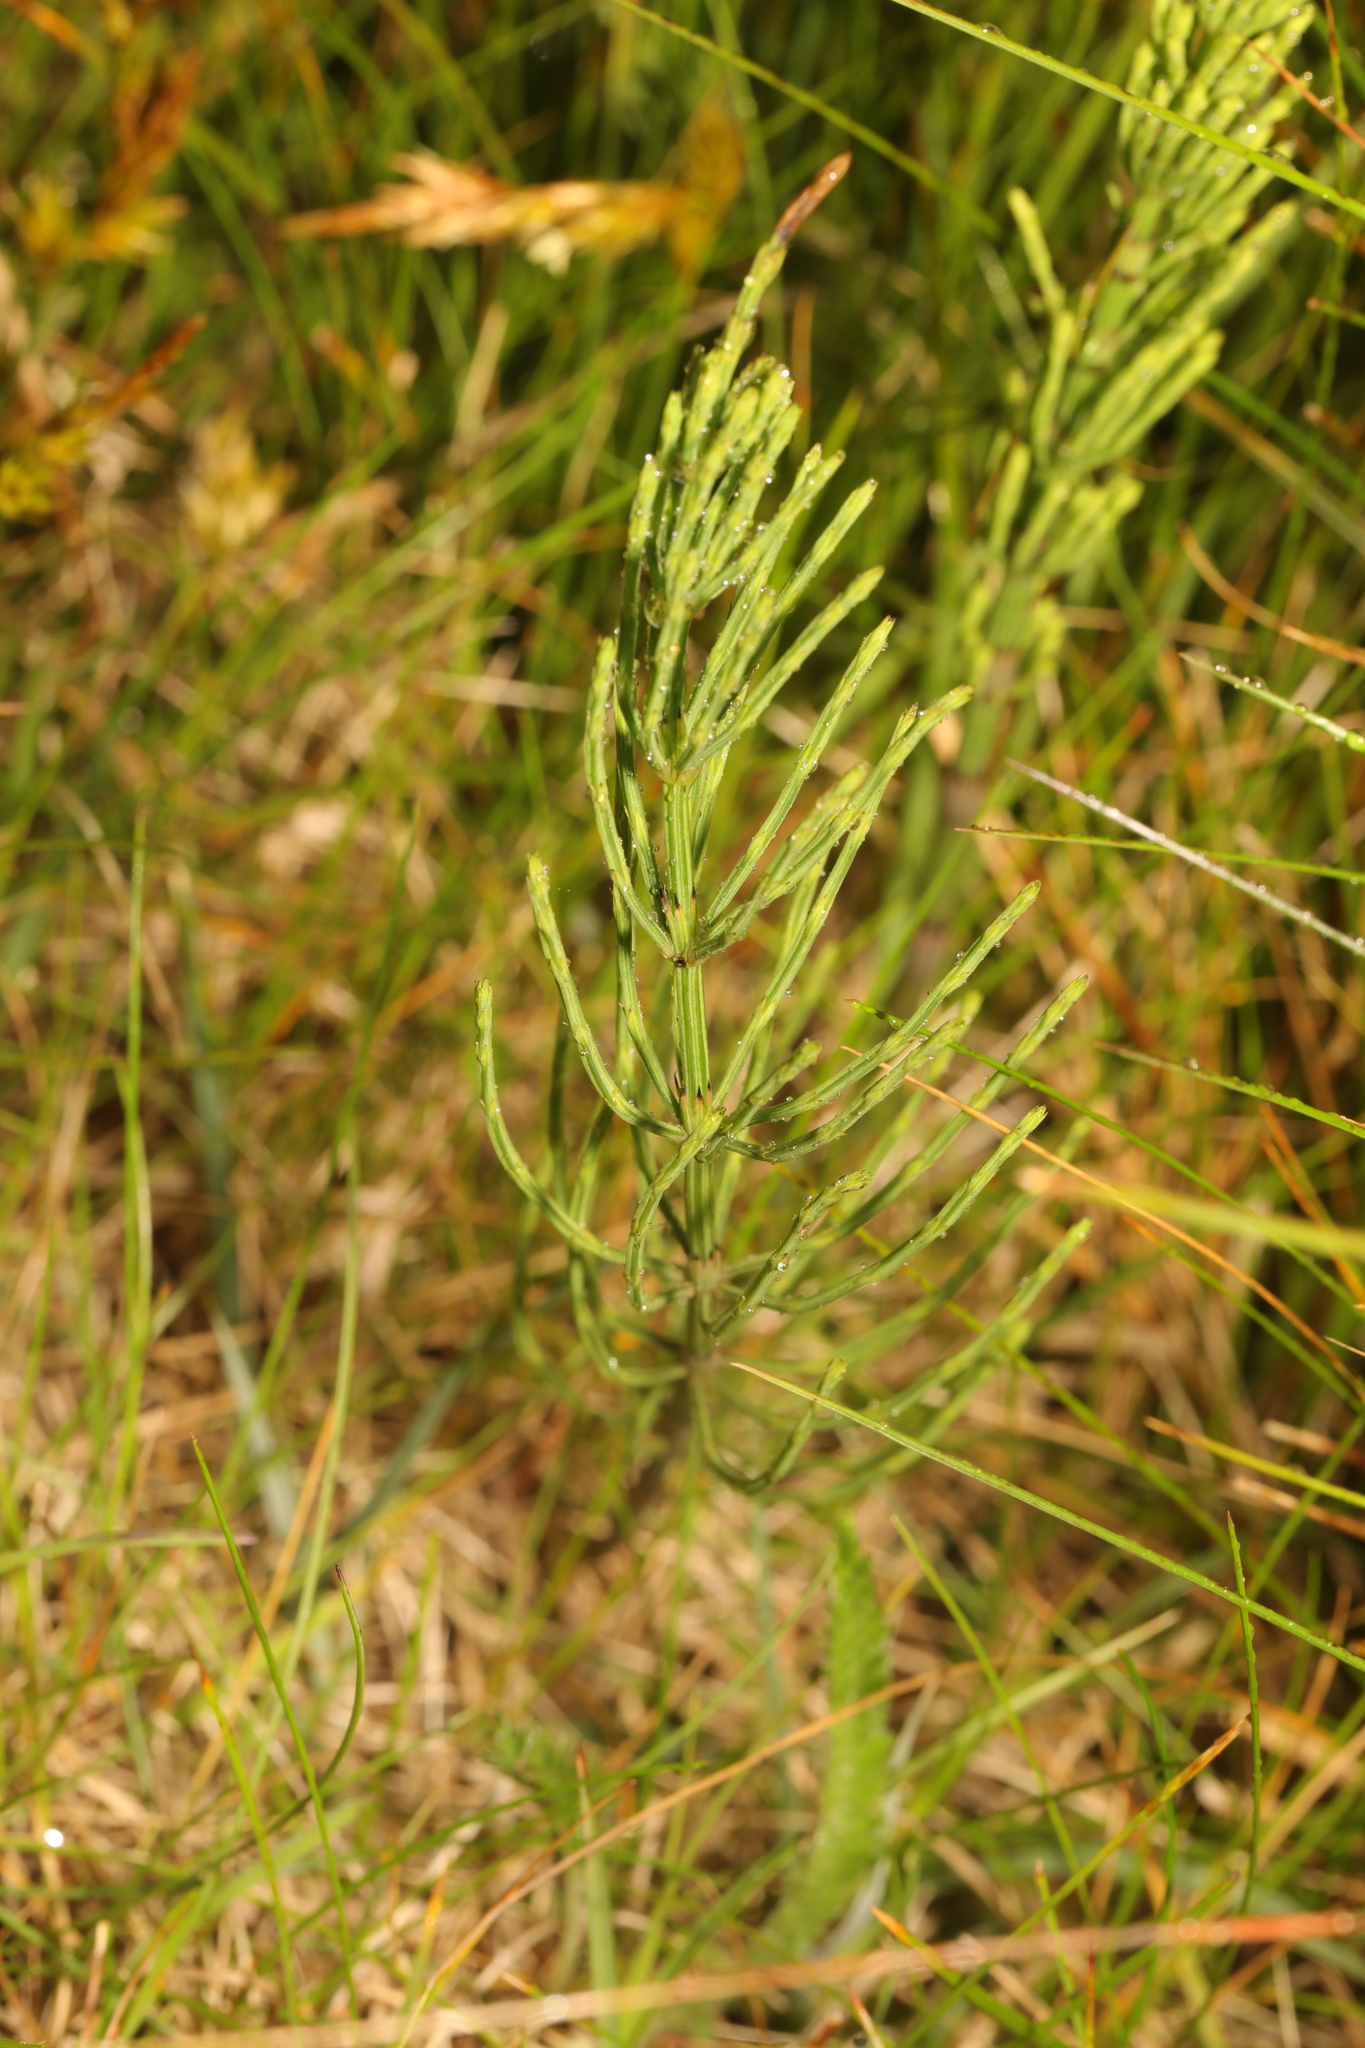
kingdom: Plantae
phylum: Tracheophyta
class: Polypodiopsida
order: Equisetales
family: Equisetaceae
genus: Equisetum
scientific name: Equisetum arvense
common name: Field horsetail
